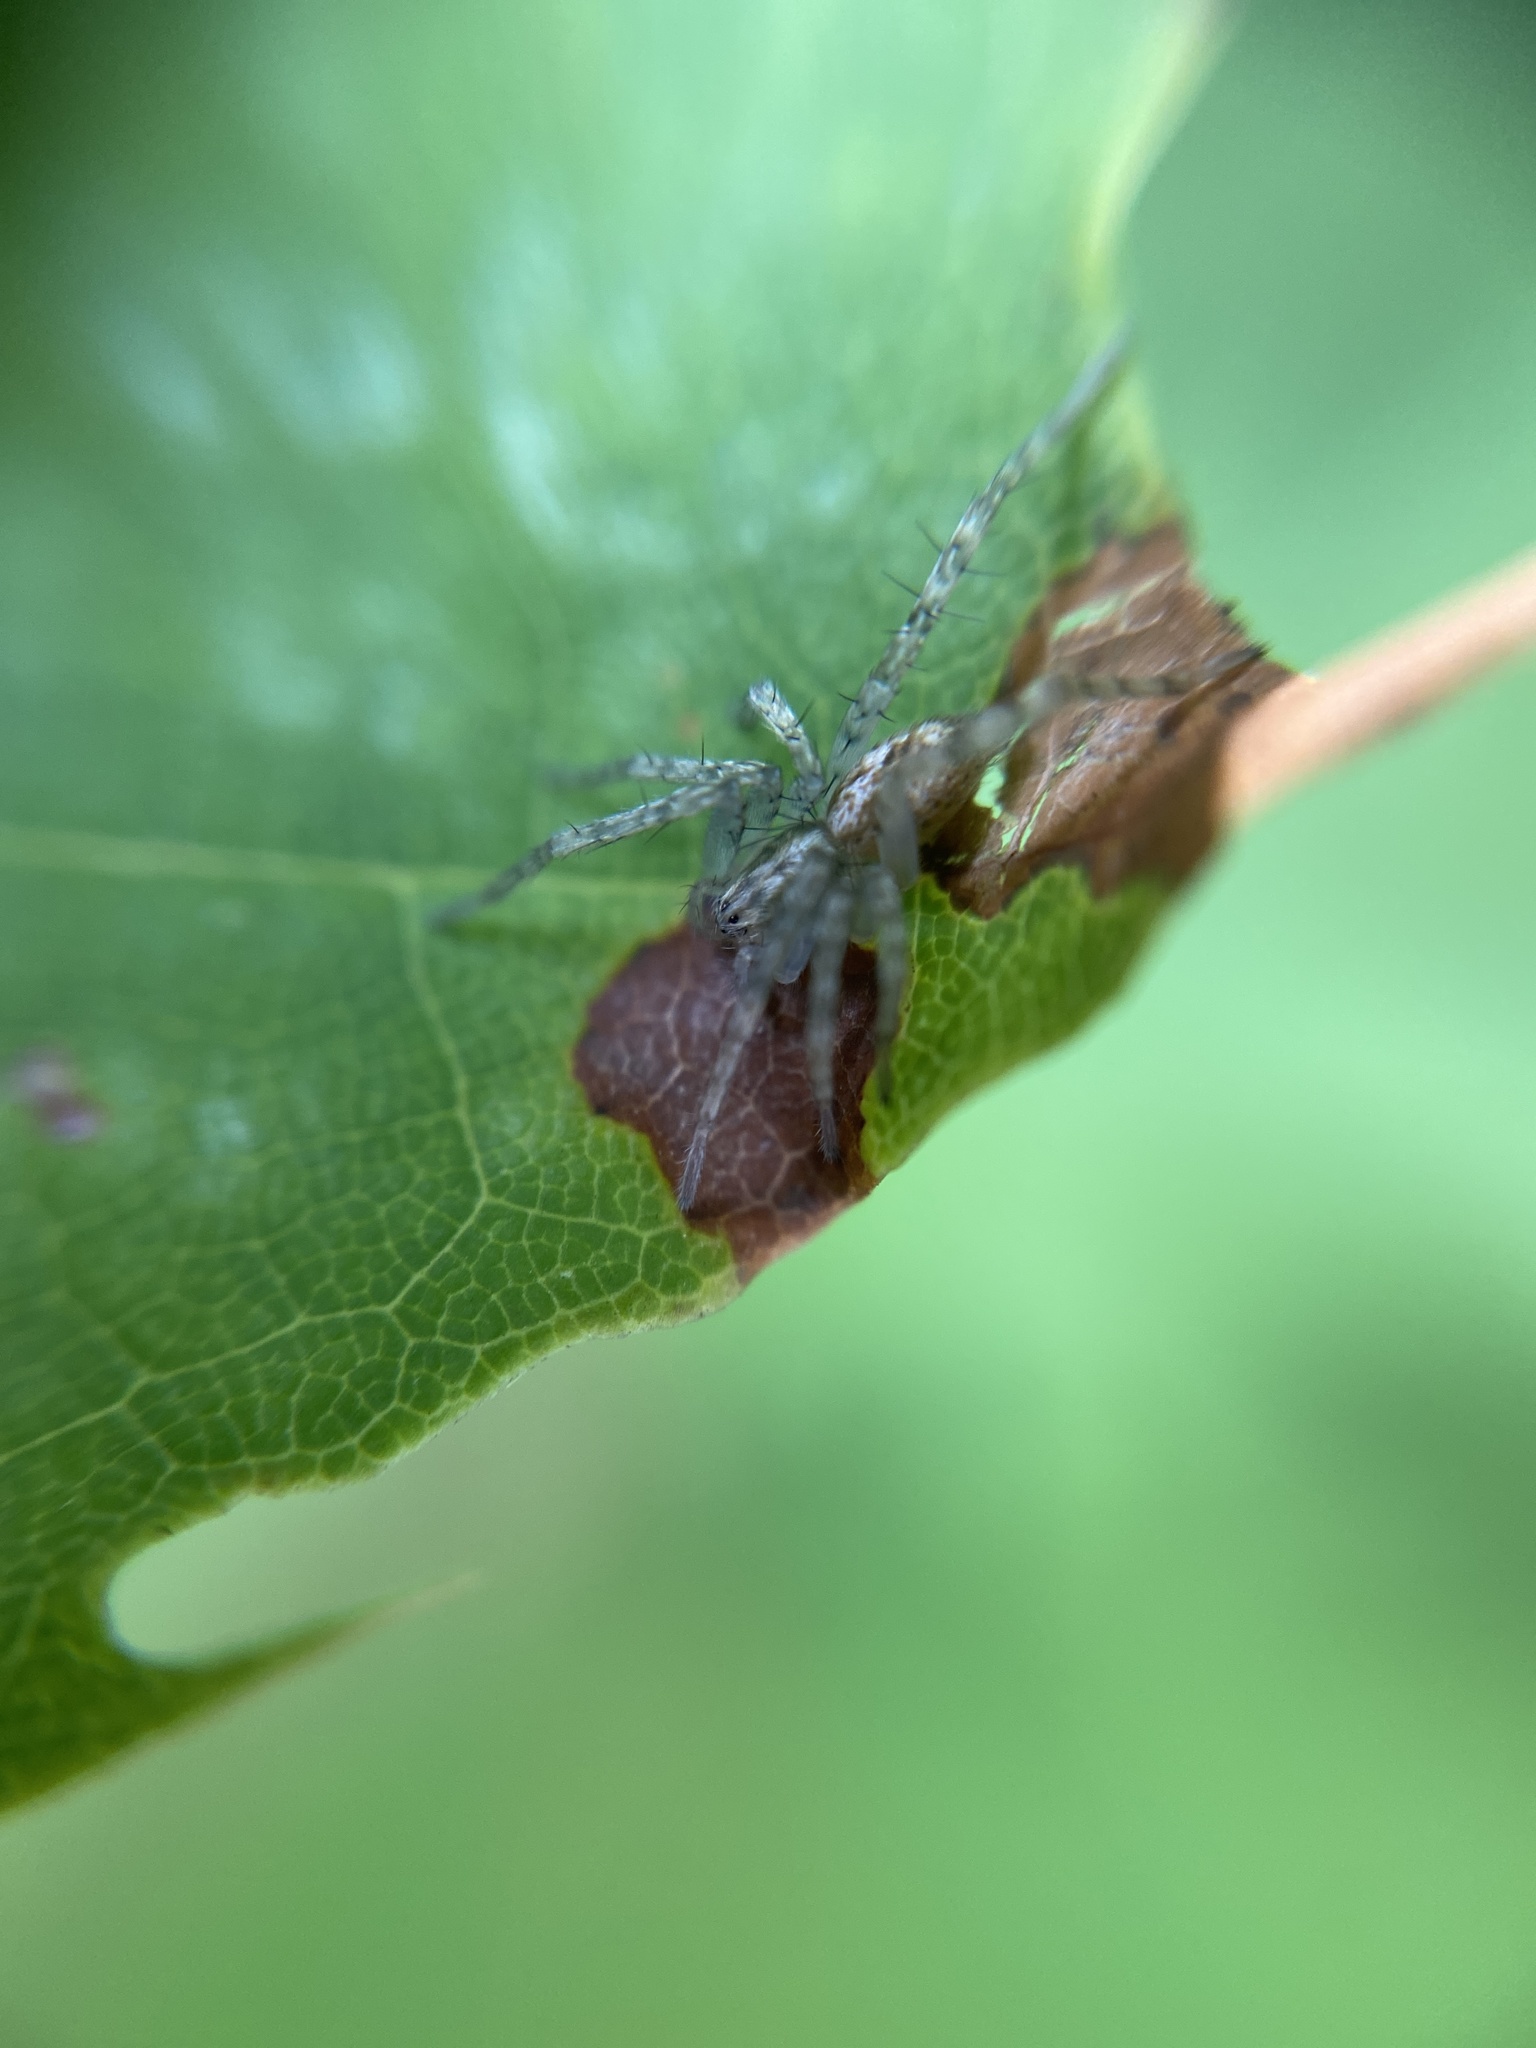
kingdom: Animalia
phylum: Arthropoda
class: Arachnida
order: Araneae
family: Anyphaenidae
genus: Anyphaena
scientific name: Anyphaena accentuata
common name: Buzzing spider
